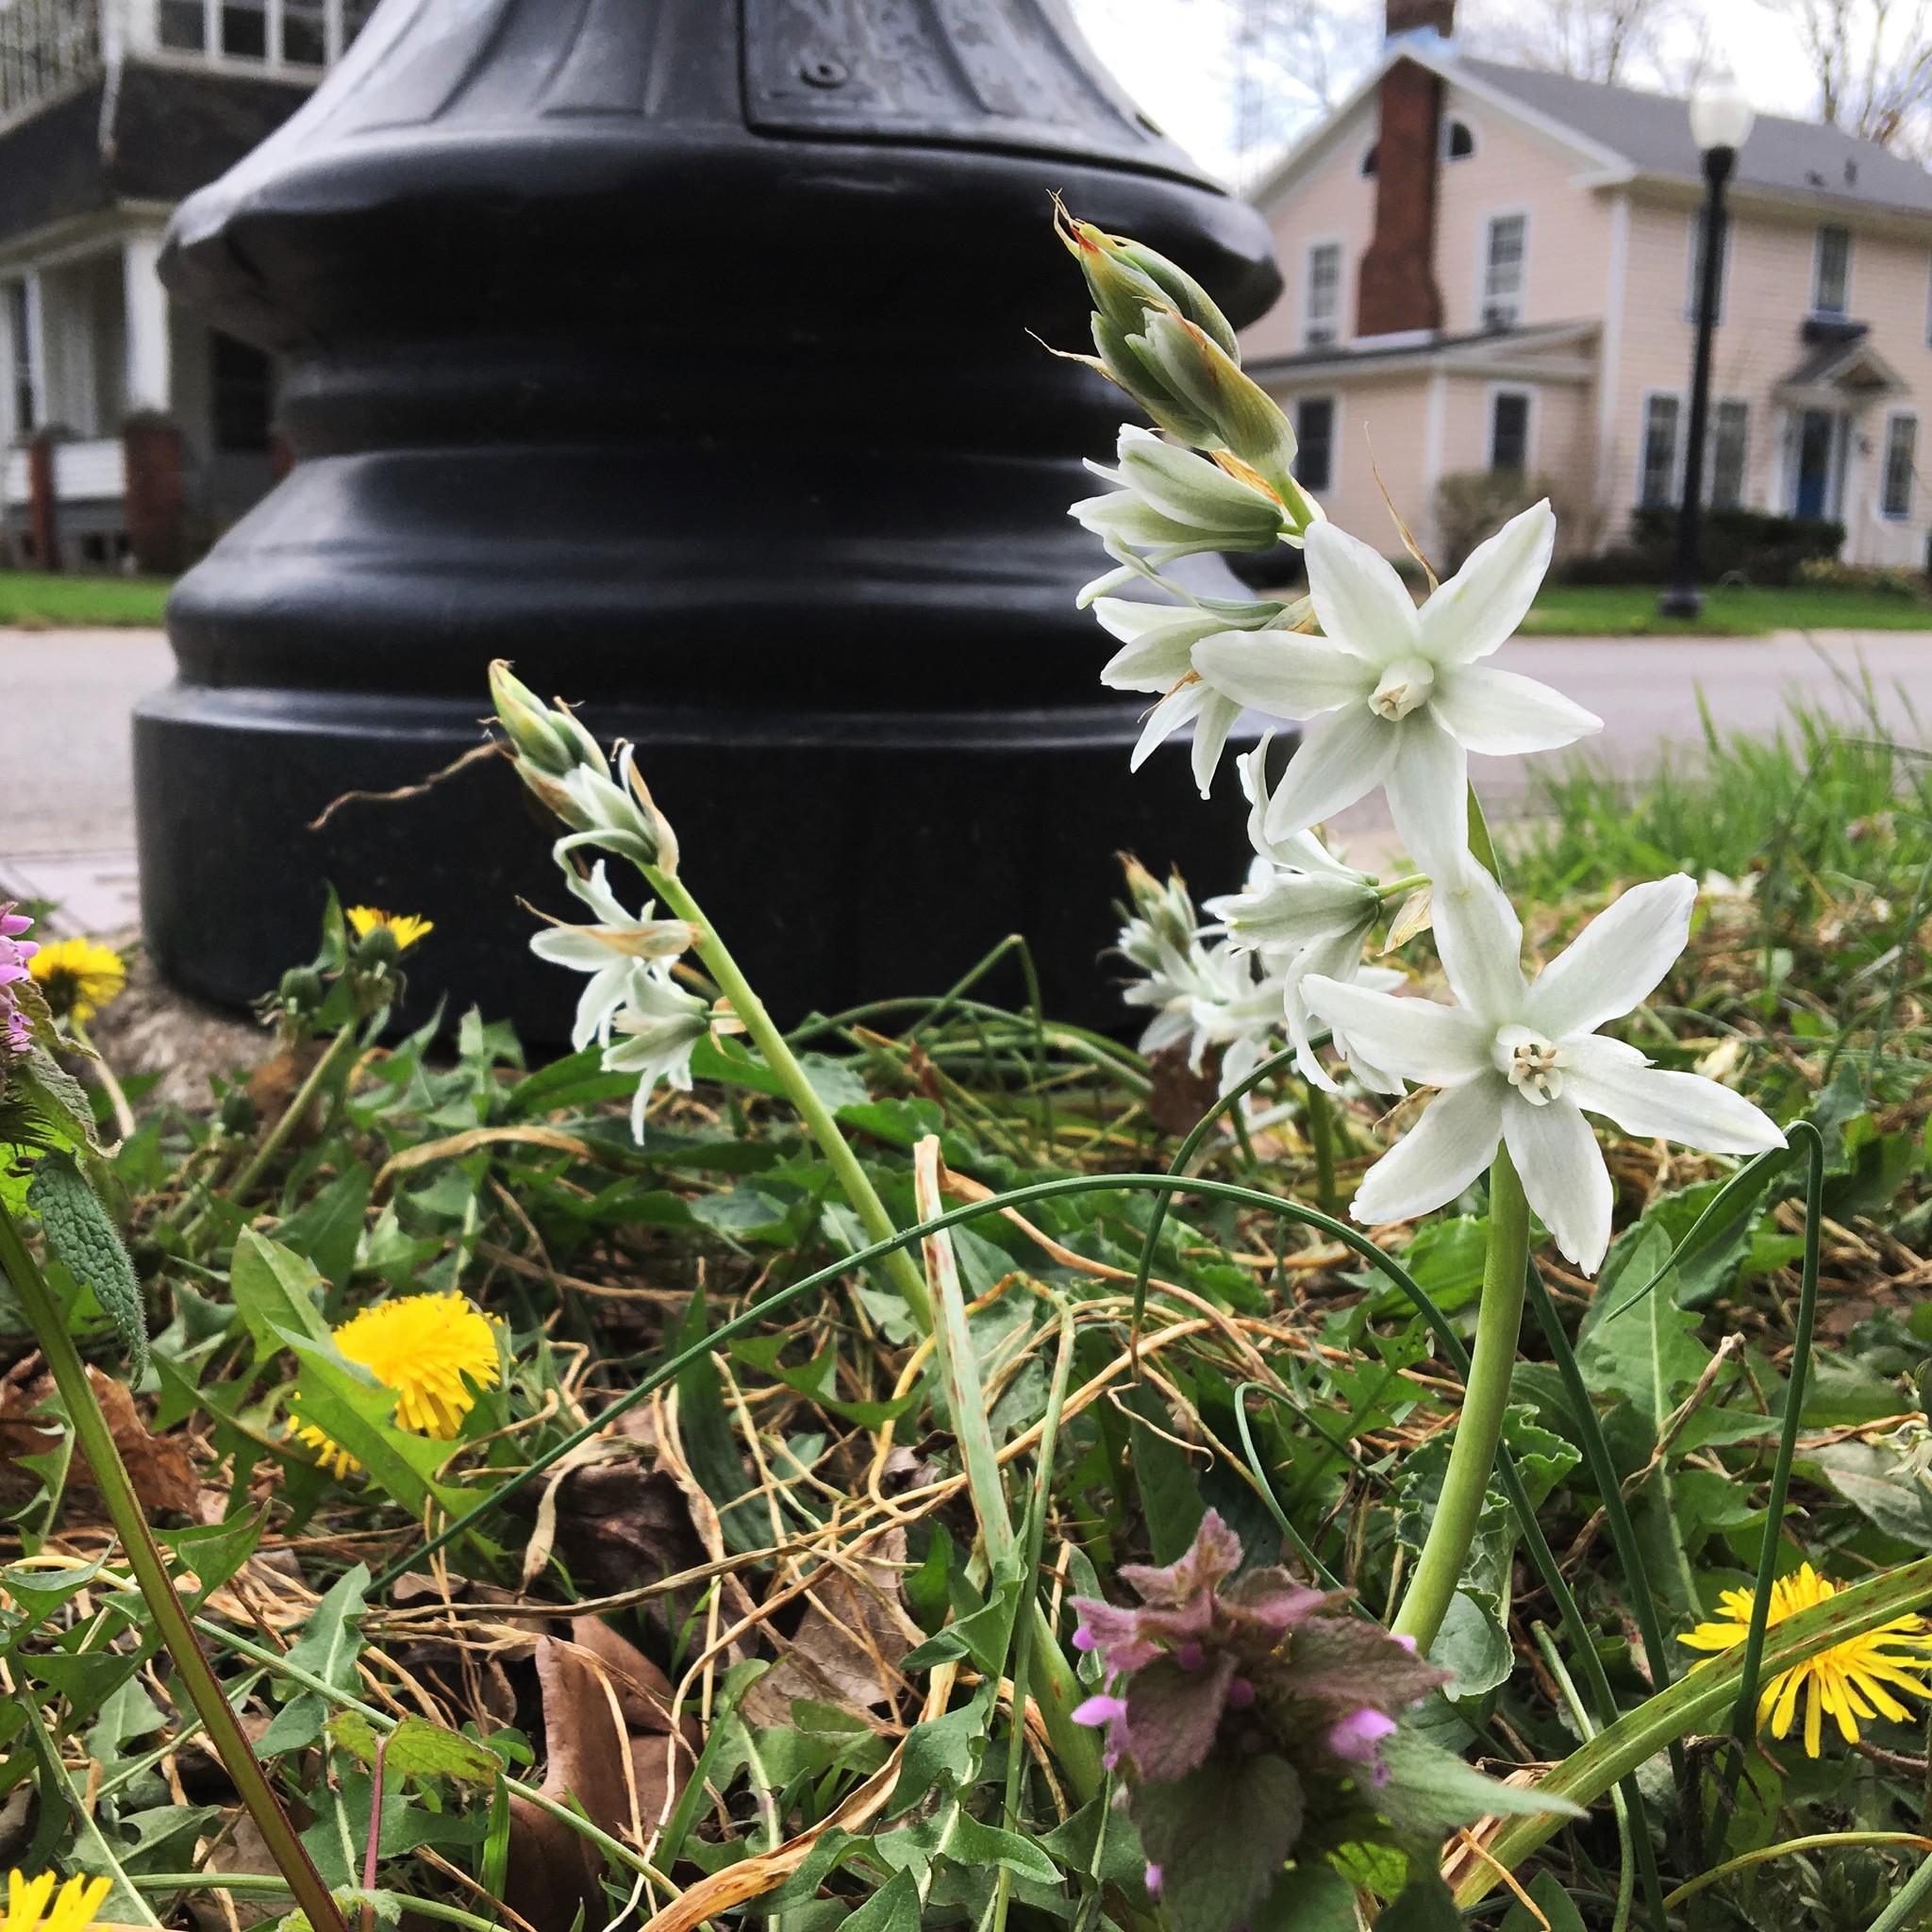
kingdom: Plantae
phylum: Tracheophyta
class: Liliopsida
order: Asparagales
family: Asparagaceae
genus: Ornithogalum
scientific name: Ornithogalum nutans
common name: Drooping star-of-bethlehem
